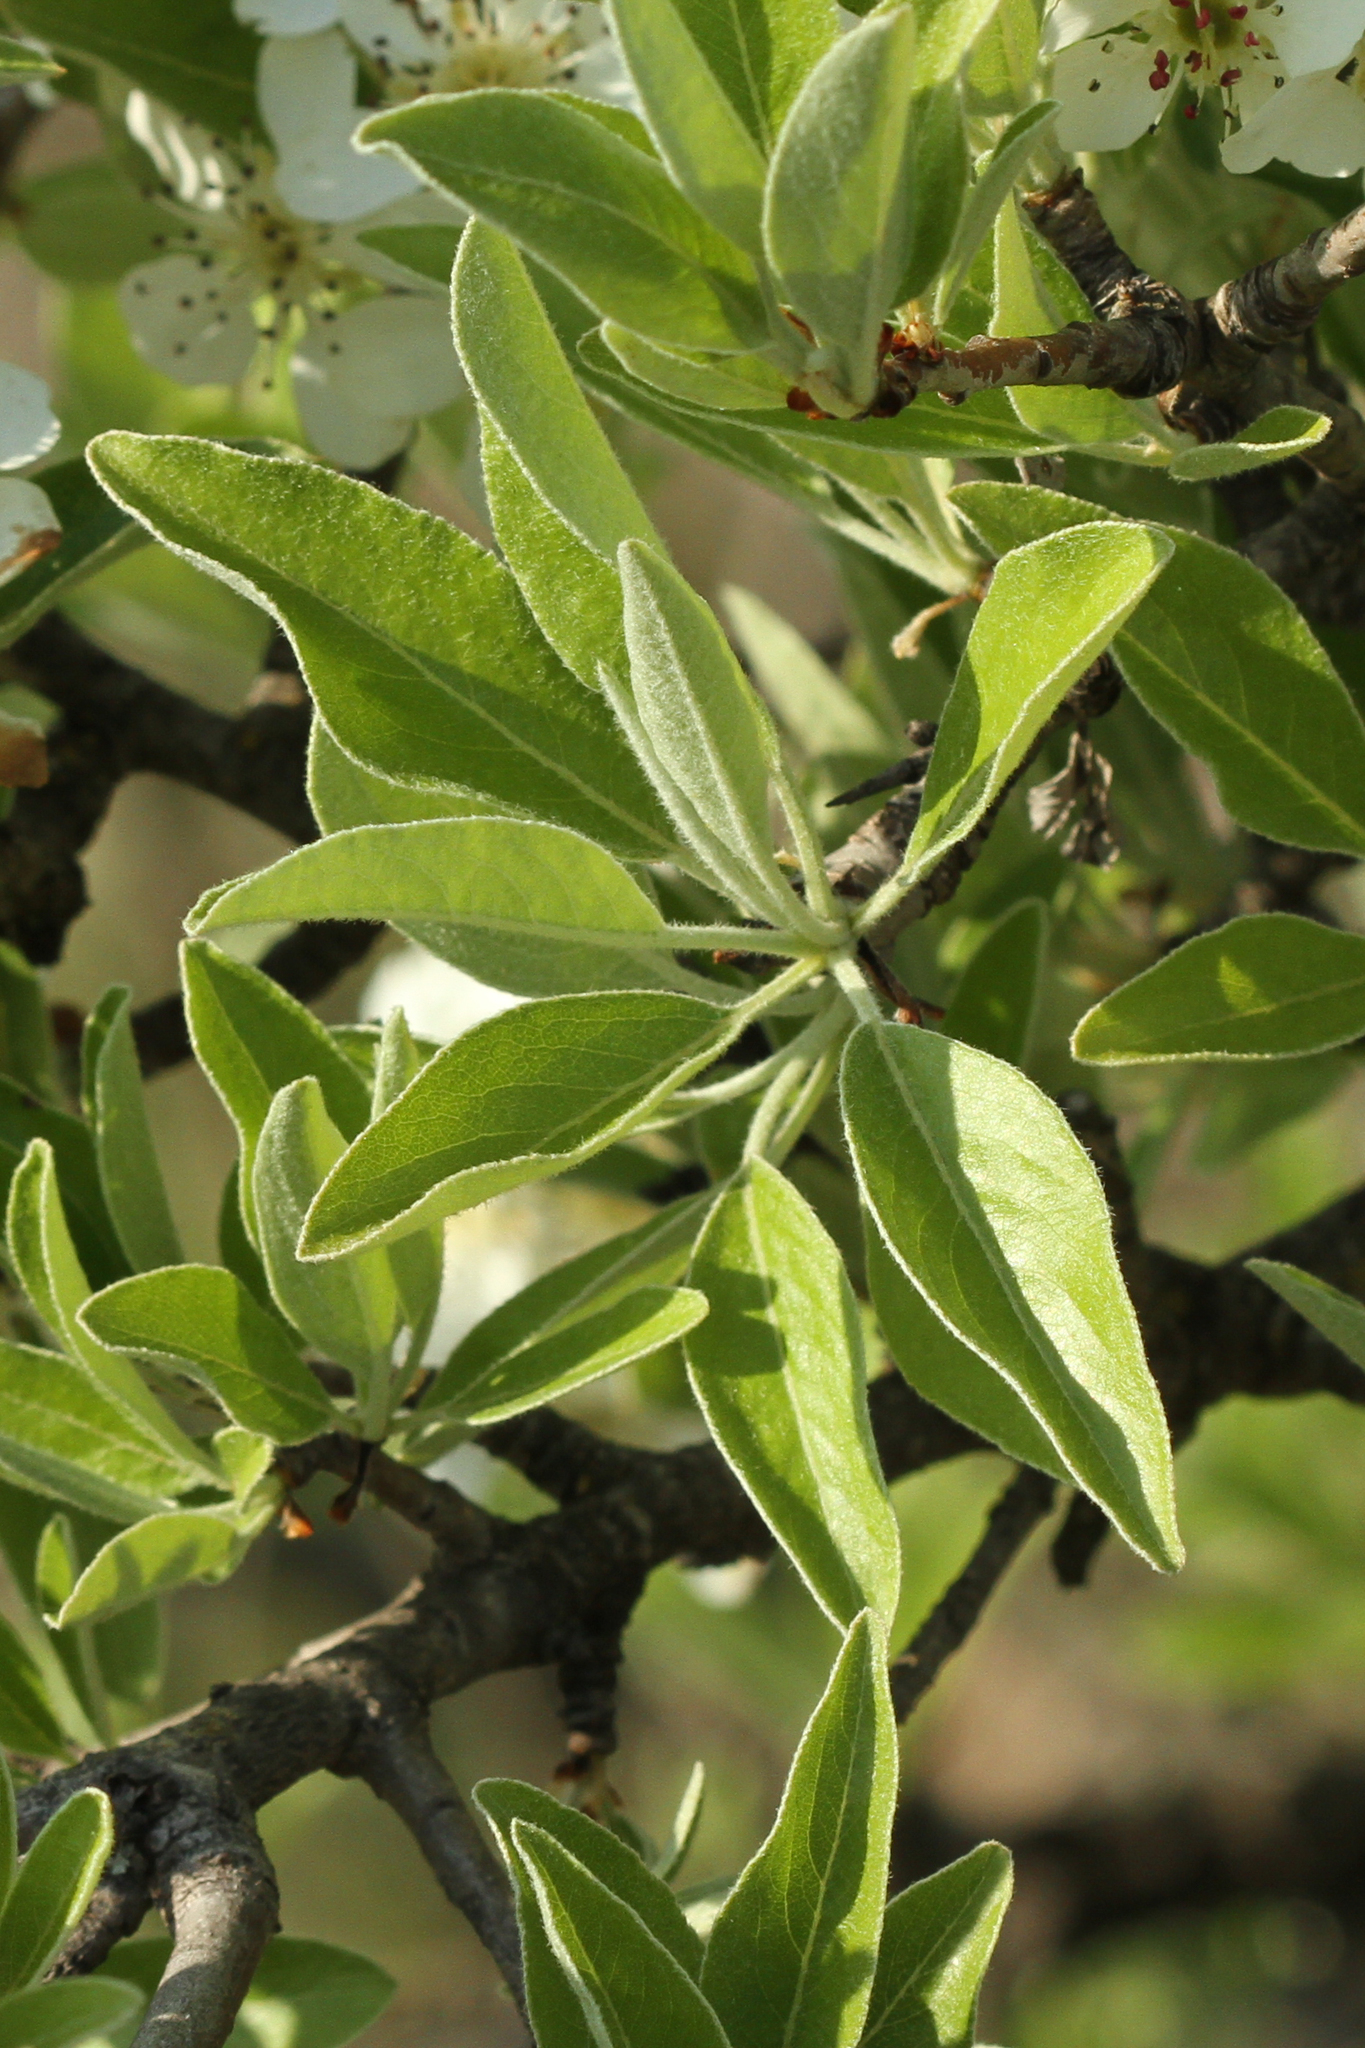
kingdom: Plantae
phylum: Tracheophyta
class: Magnoliopsida
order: Rosales
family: Rosaceae
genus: Pyrus
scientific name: Pyrus spinosa
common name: Almond-leaf pear
